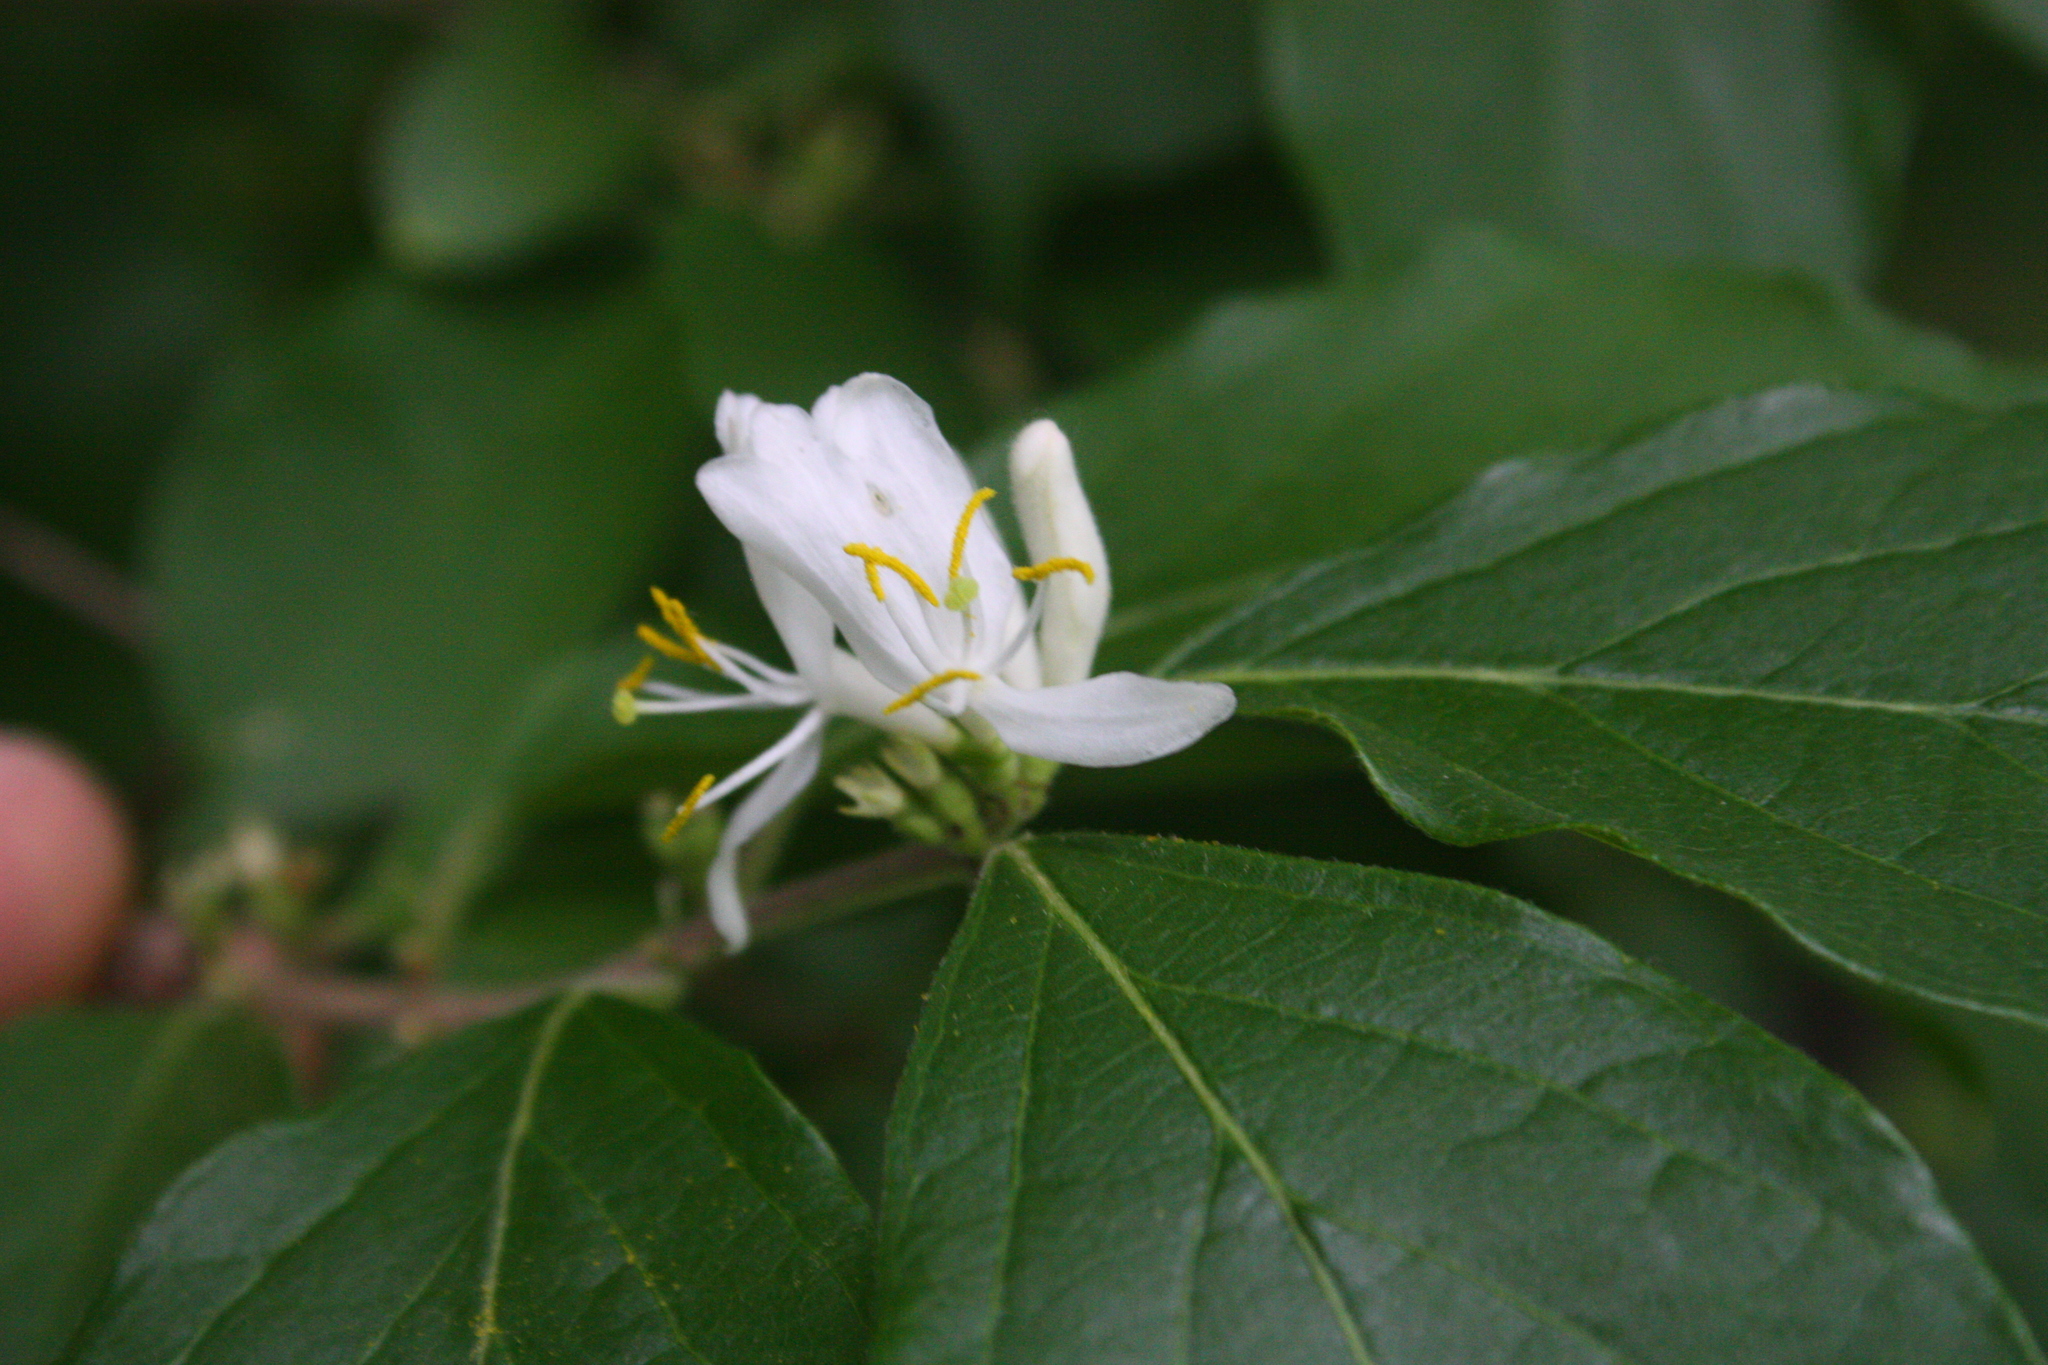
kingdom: Plantae
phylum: Tracheophyta
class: Magnoliopsida
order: Dipsacales
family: Caprifoliaceae
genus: Lonicera
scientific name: Lonicera maackii
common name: Amur honeysuckle
